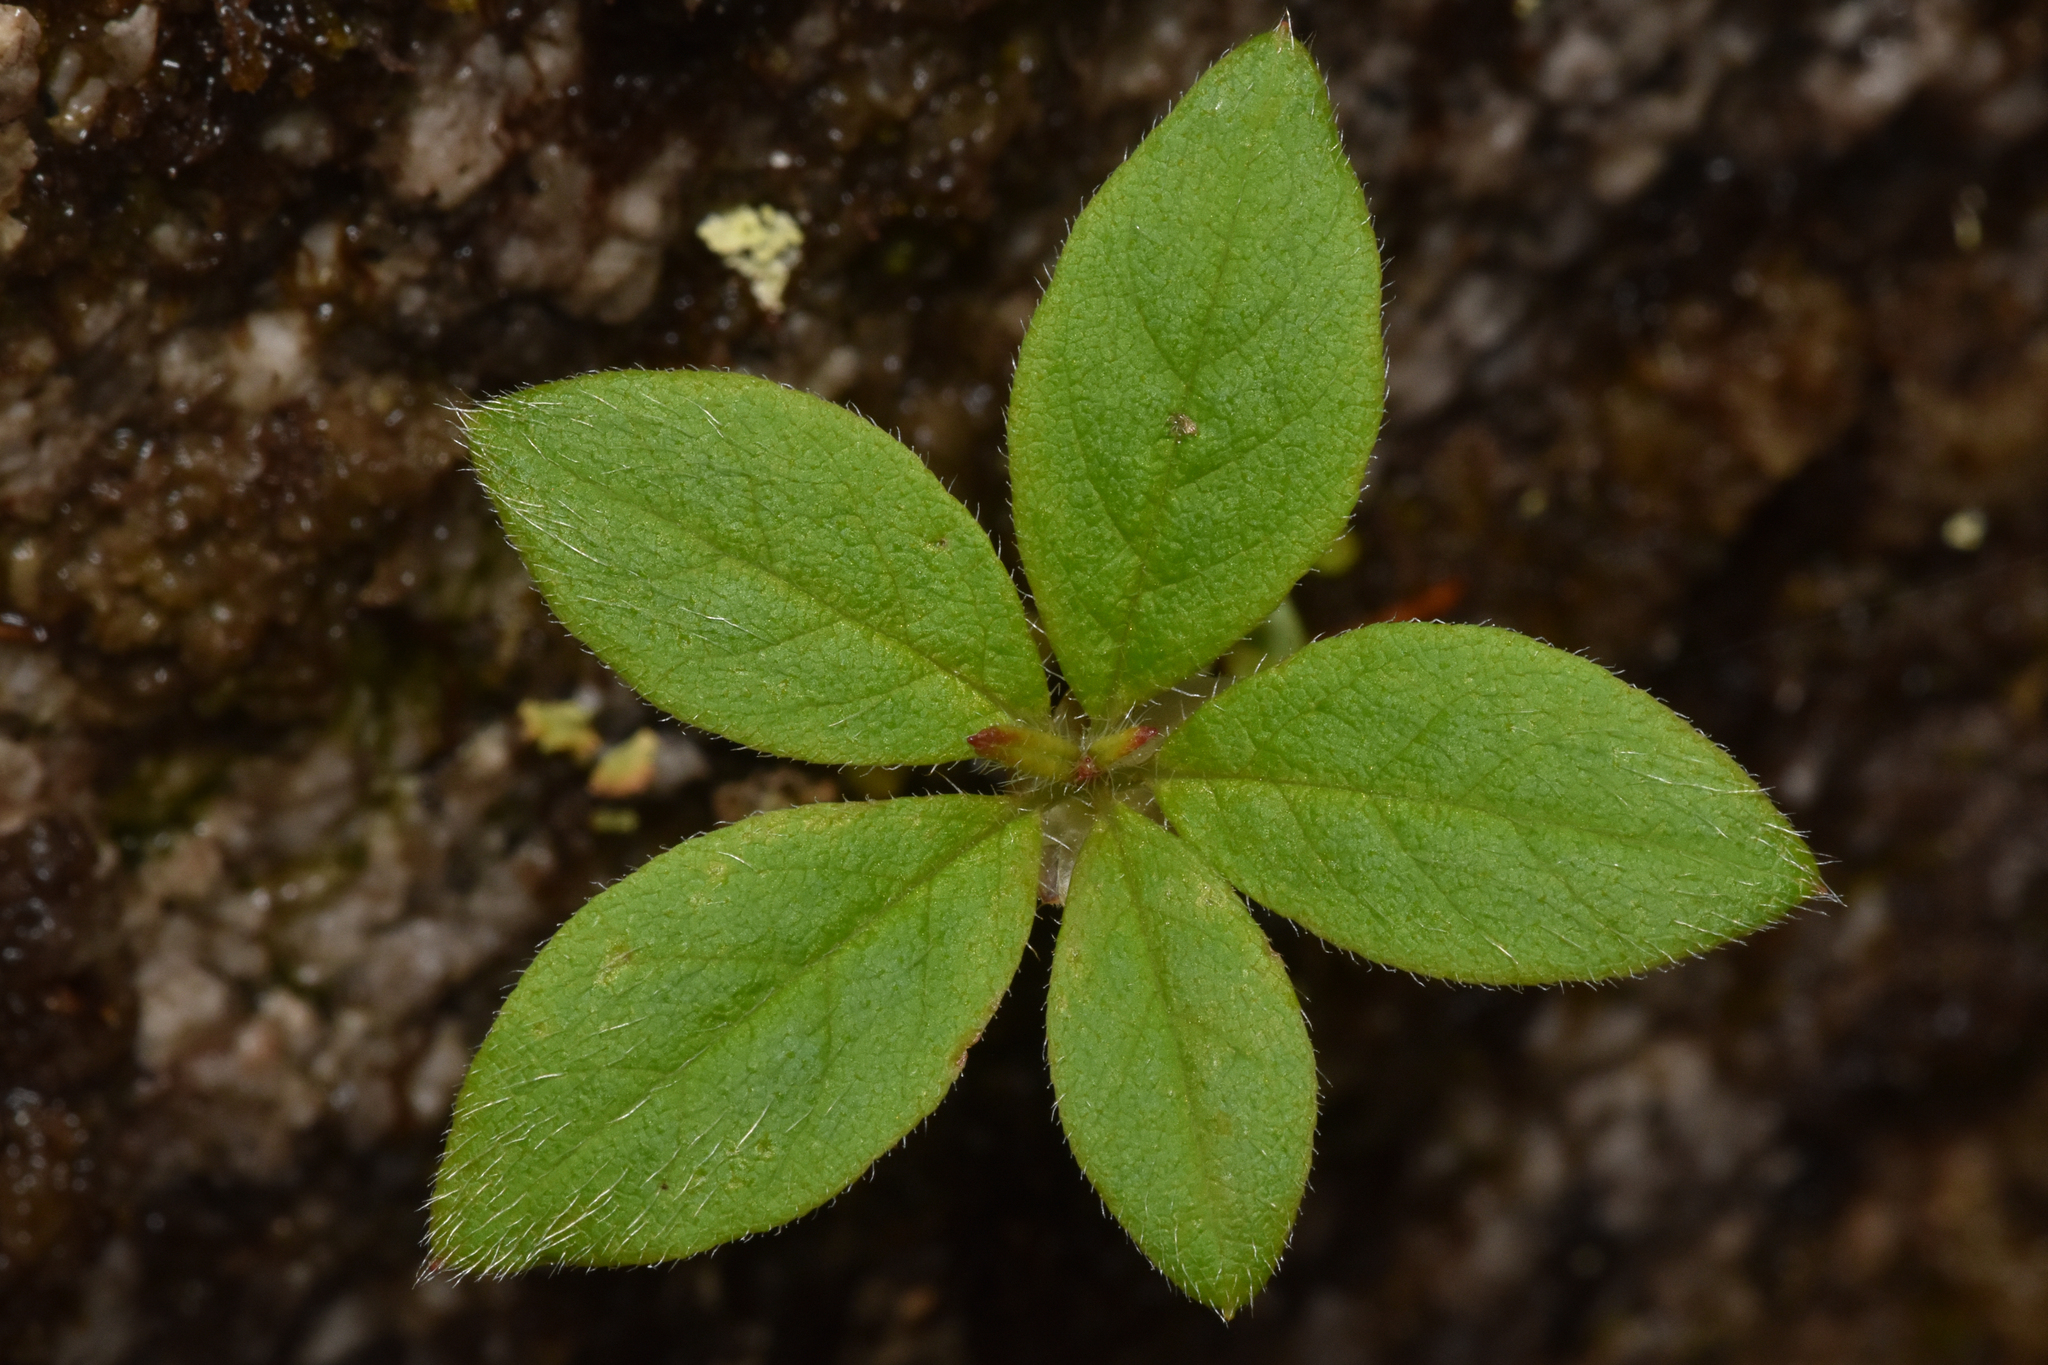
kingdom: Plantae
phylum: Tracheophyta
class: Magnoliopsida
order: Ericales
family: Ericaceae
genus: Rhododendron
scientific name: Rhododendron menziesii
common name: Pacific menziesia
